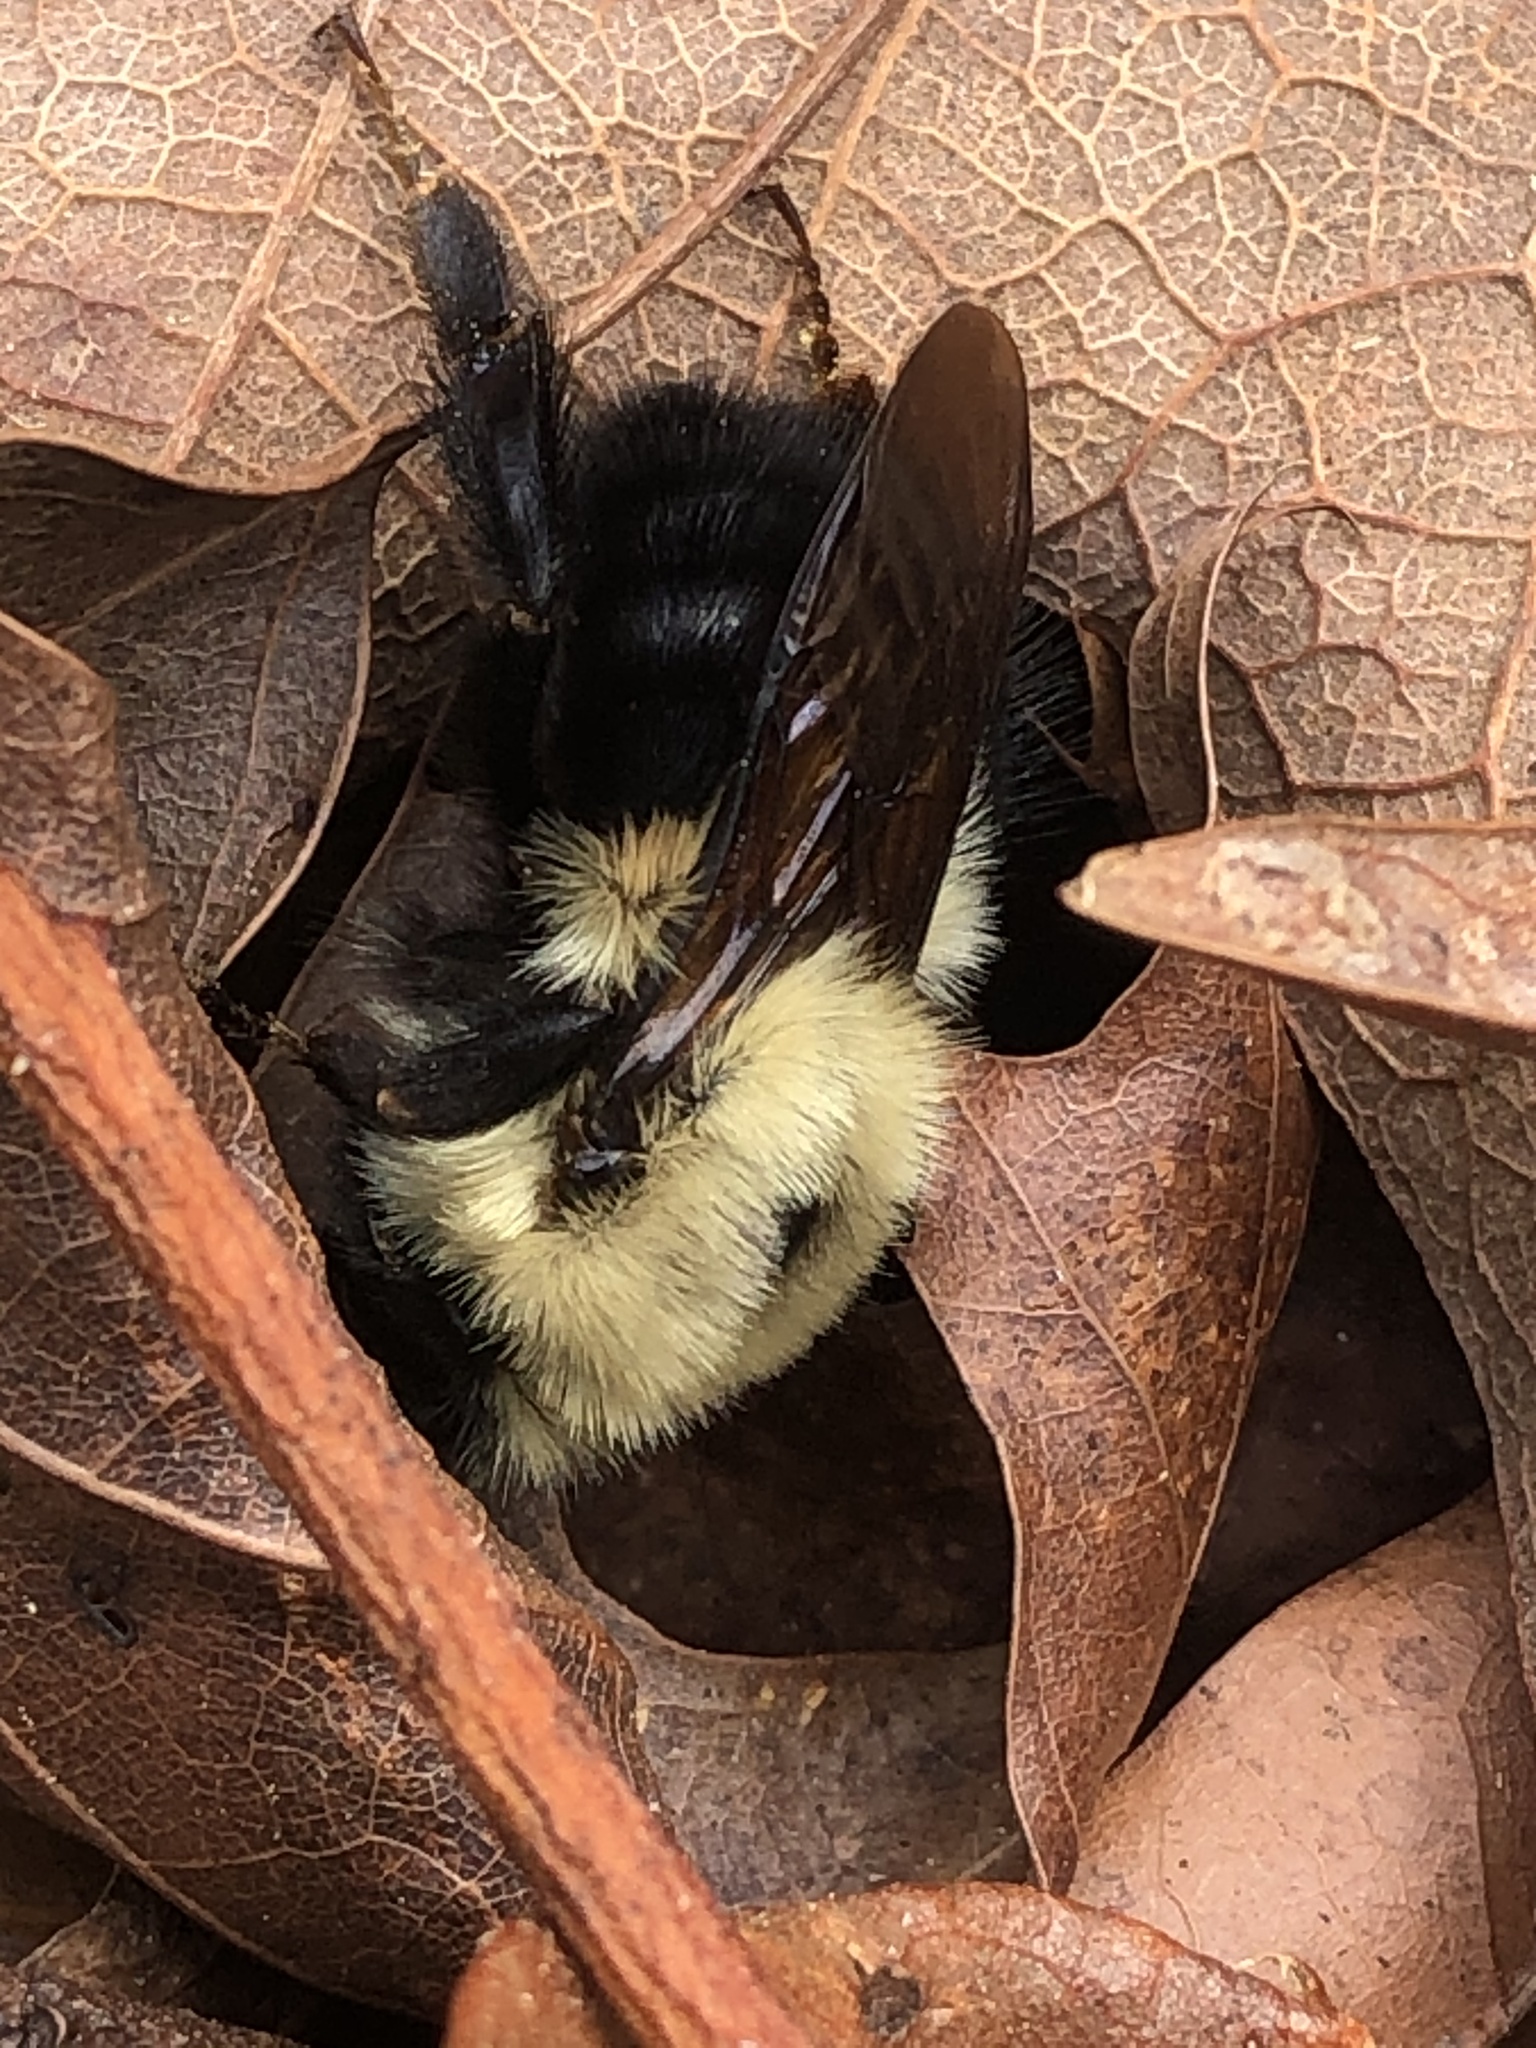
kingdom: Animalia
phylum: Arthropoda
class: Insecta
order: Hymenoptera
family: Apidae
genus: Bombus
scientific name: Bombus bimaculatus
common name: Two-spotted bumble bee
